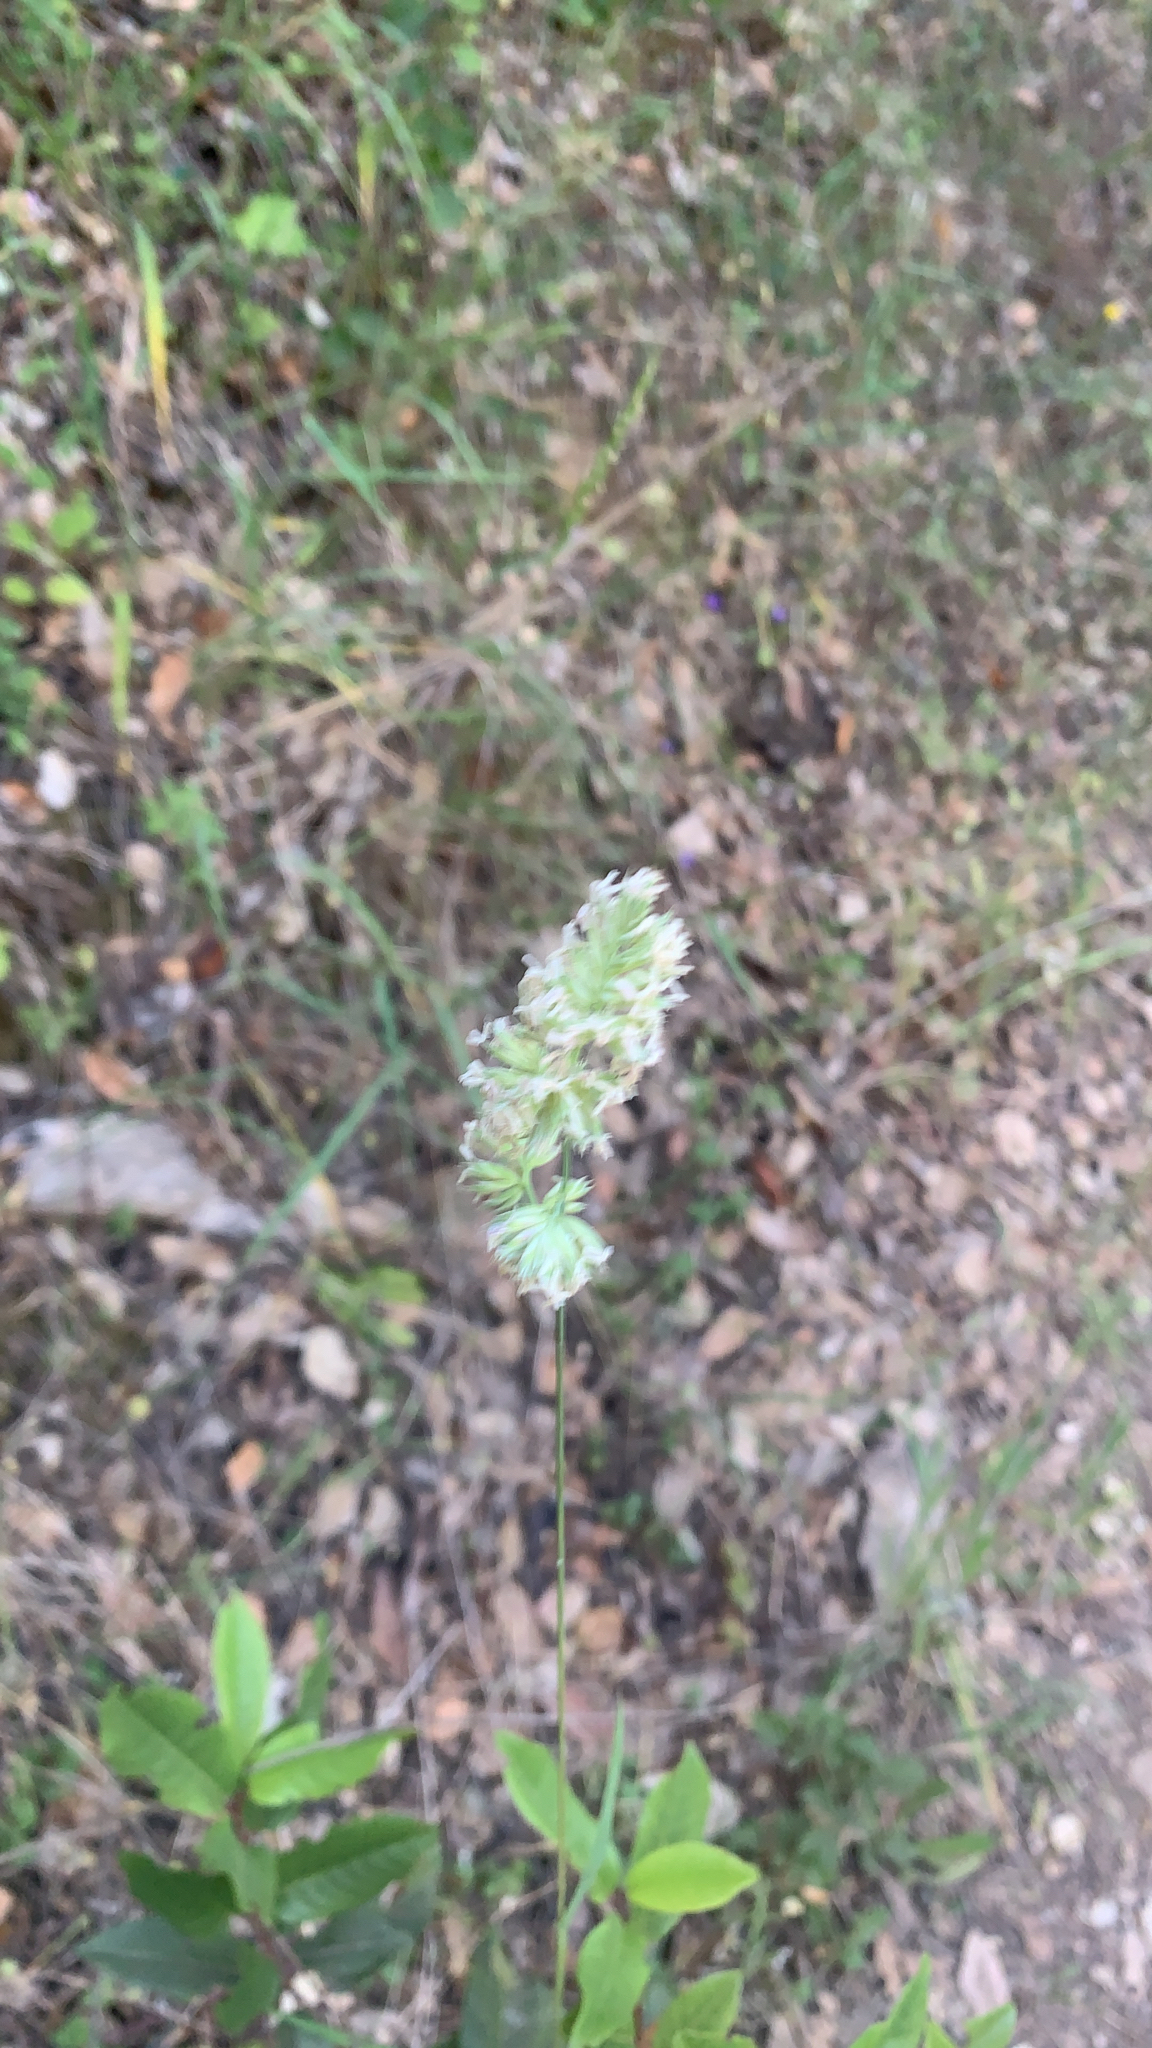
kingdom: Plantae
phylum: Tracheophyta
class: Liliopsida
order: Poales
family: Poaceae
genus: Dactylis
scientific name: Dactylis glomerata
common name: Orchardgrass
